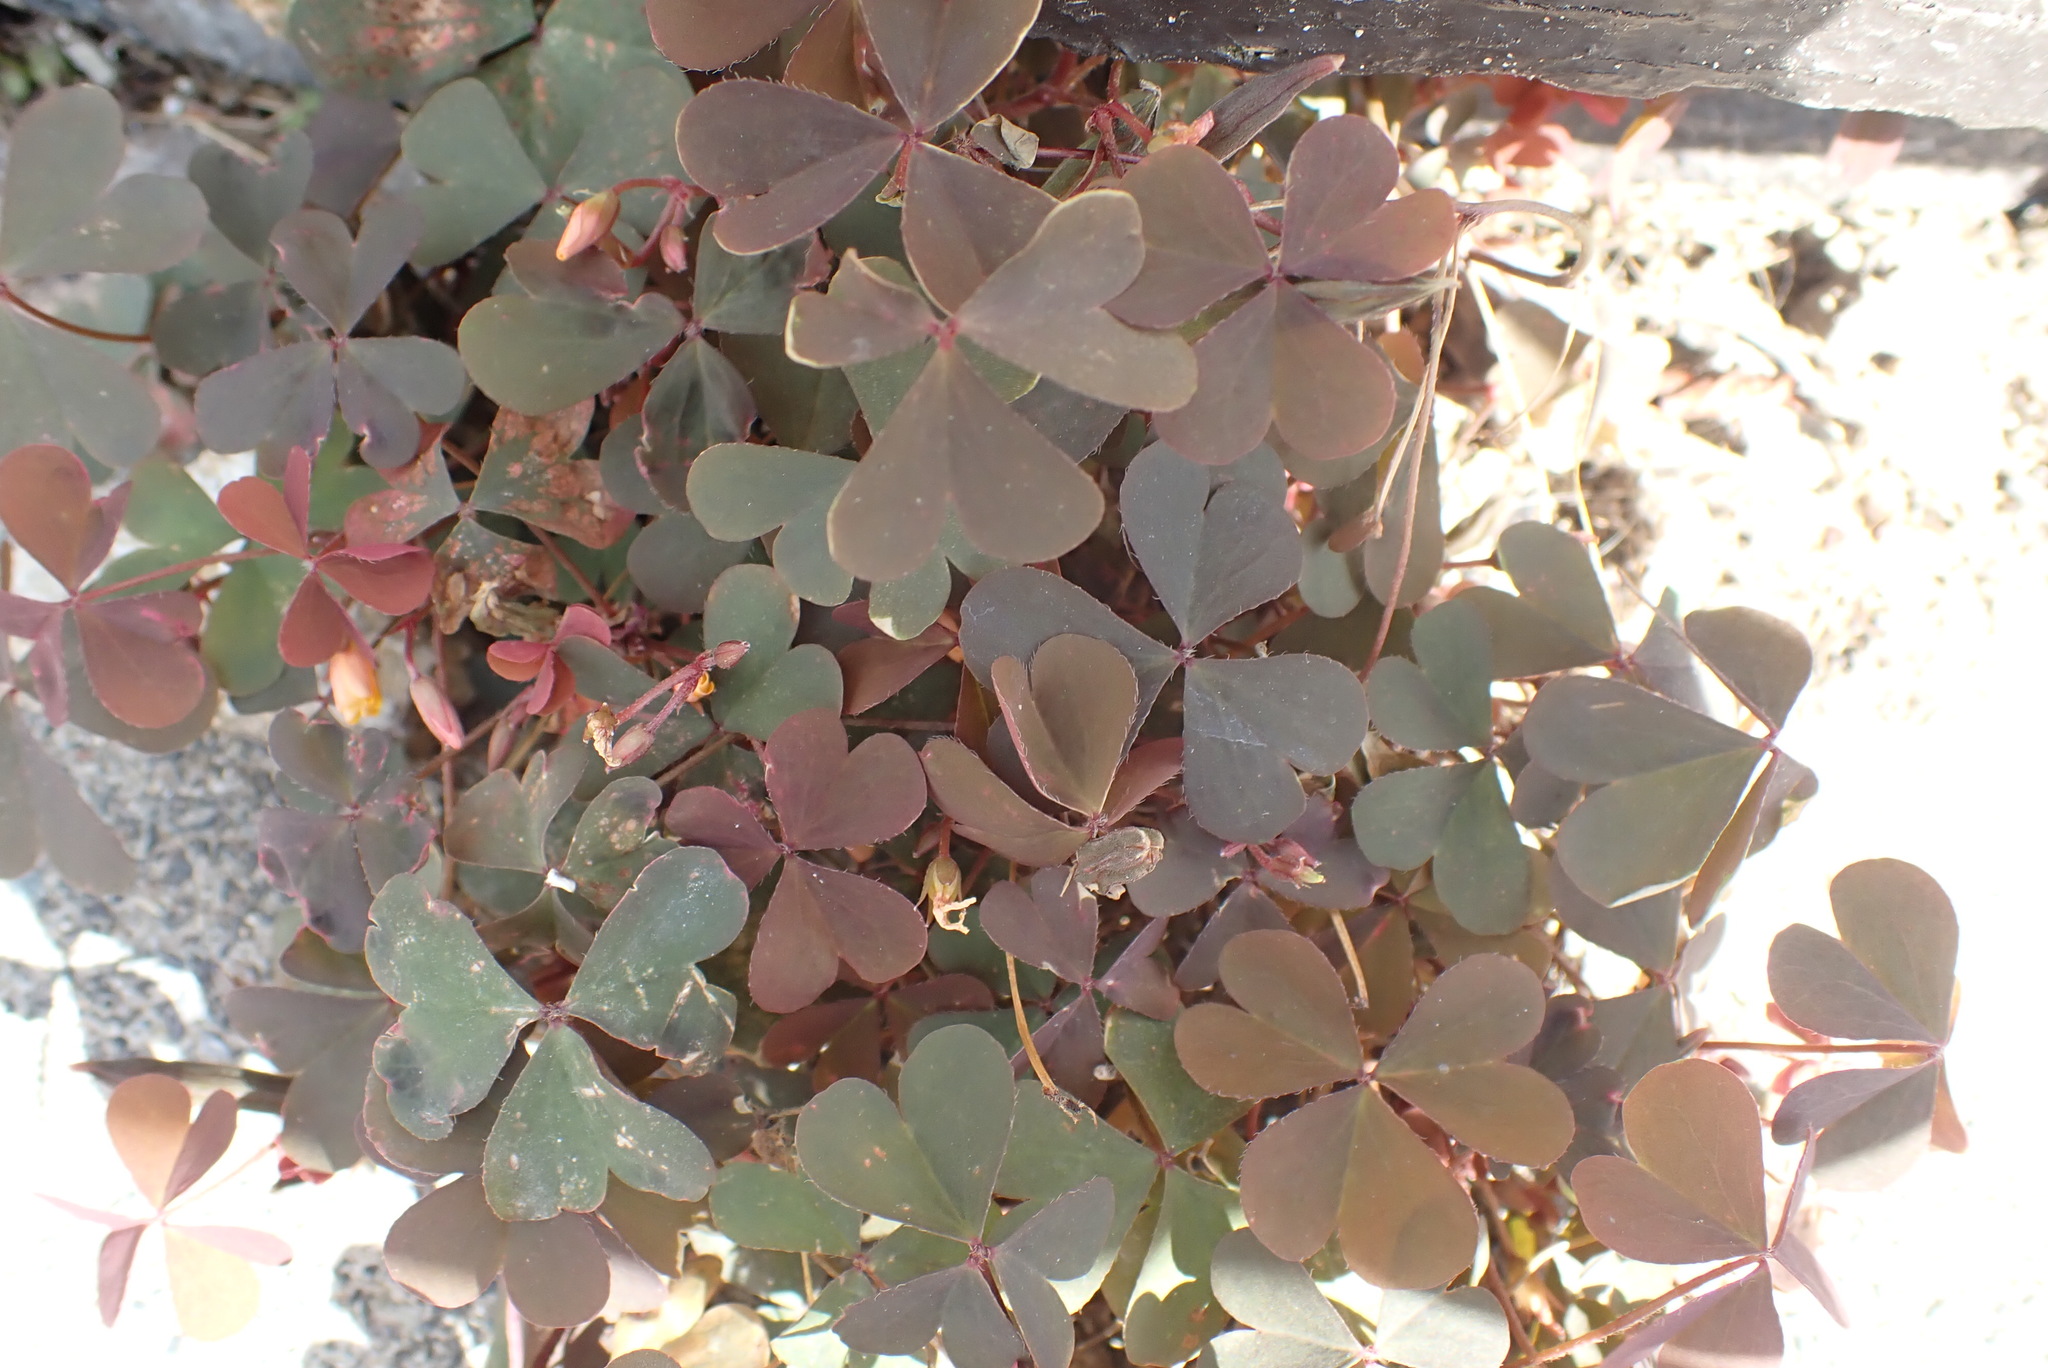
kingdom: Plantae
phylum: Tracheophyta
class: Magnoliopsida
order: Oxalidales
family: Oxalidaceae
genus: Oxalis
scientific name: Oxalis corniculata
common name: Procumbent yellow-sorrel
